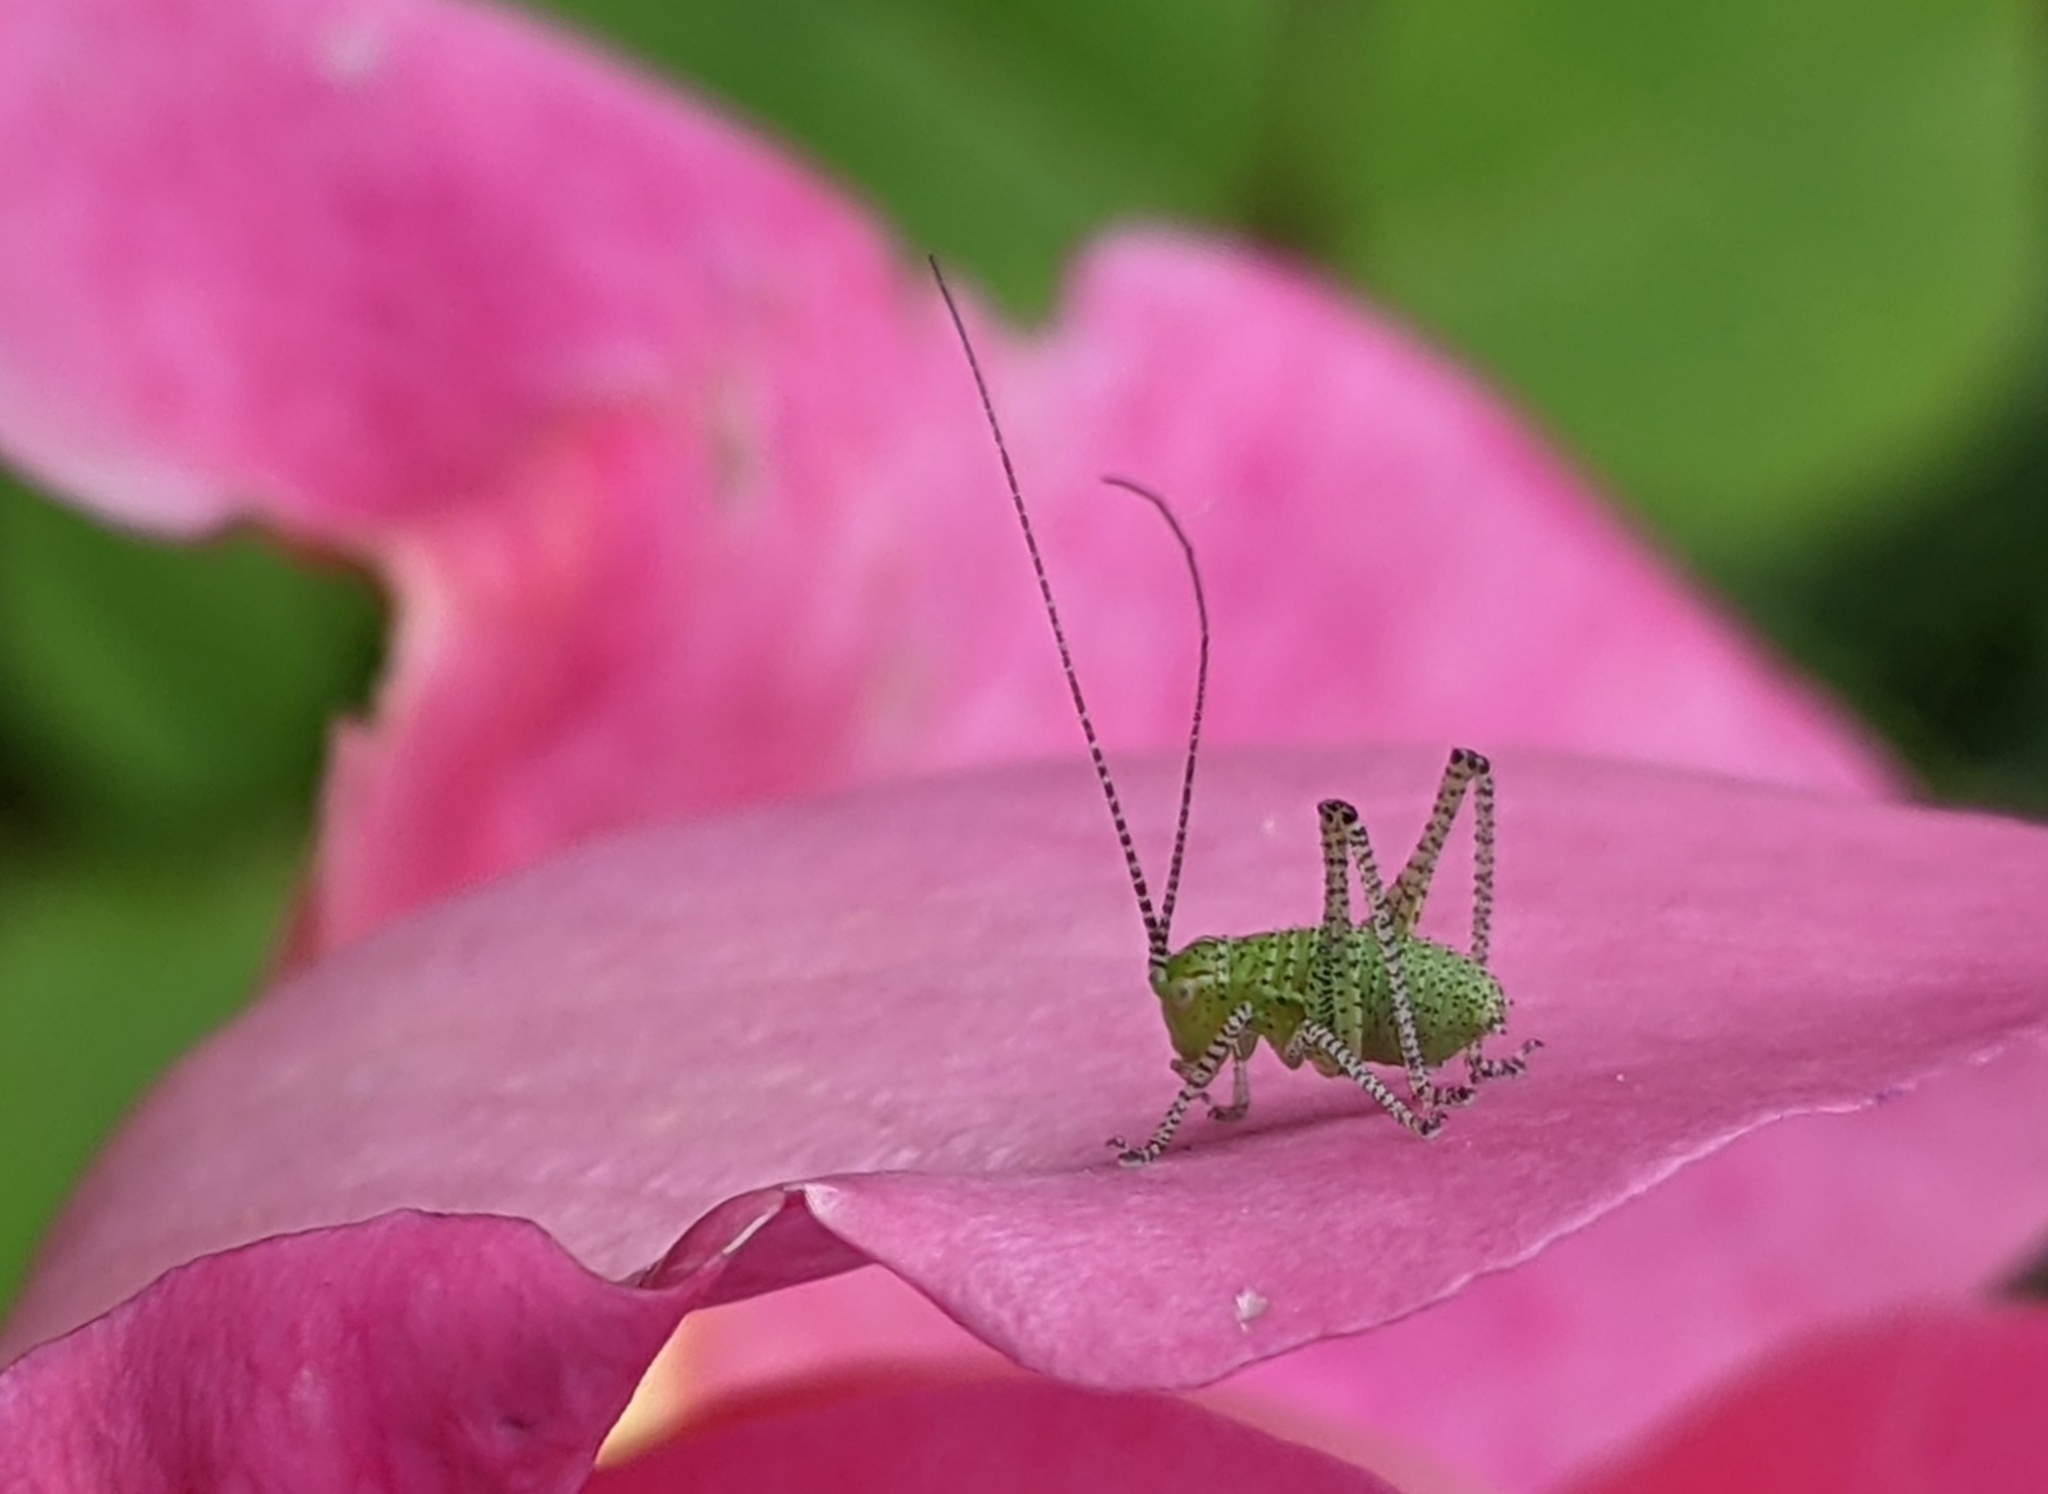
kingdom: Animalia
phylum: Arthropoda
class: Insecta
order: Orthoptera
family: Tettigoniidae
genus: Leptophyes
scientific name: Leptophyes punctatissima
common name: Speckled bush-cricket
